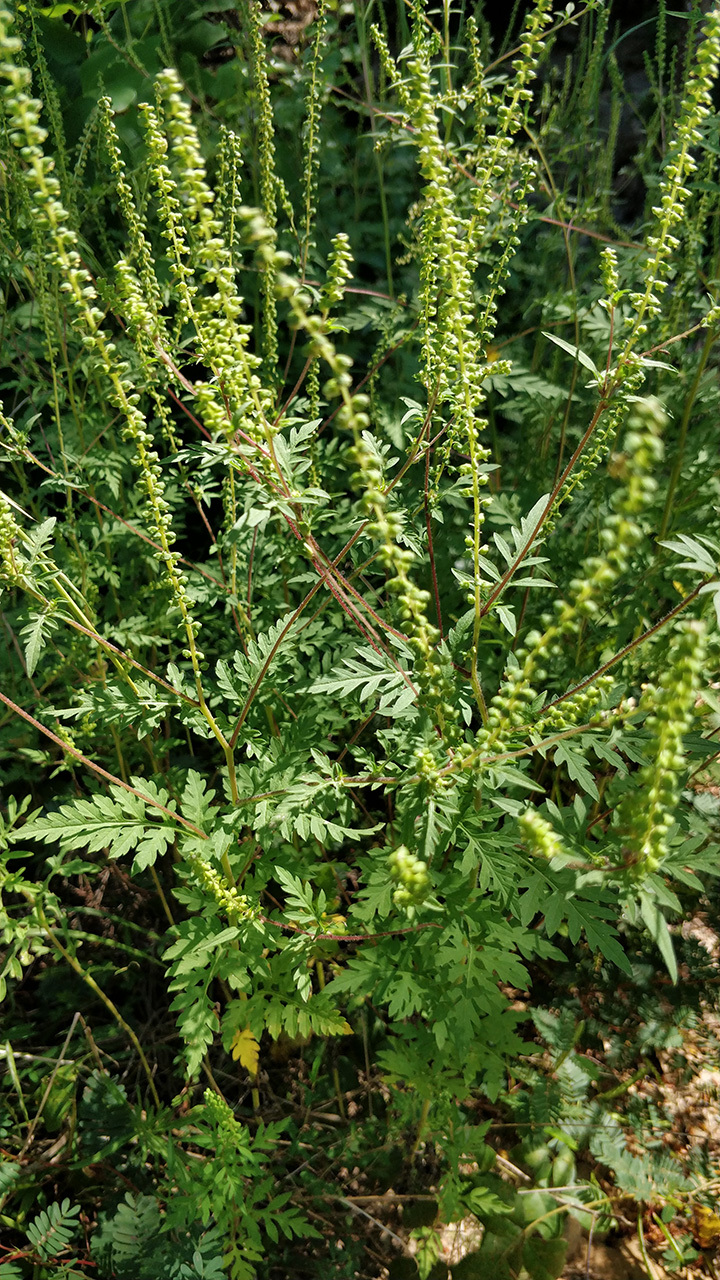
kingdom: Plantae
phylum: Tracheophyta
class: Magnoliopsida
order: Asterales
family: Asteraceae
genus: Ambrosia
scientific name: Ambrosia artemisiifolia
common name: Annual ragweed
